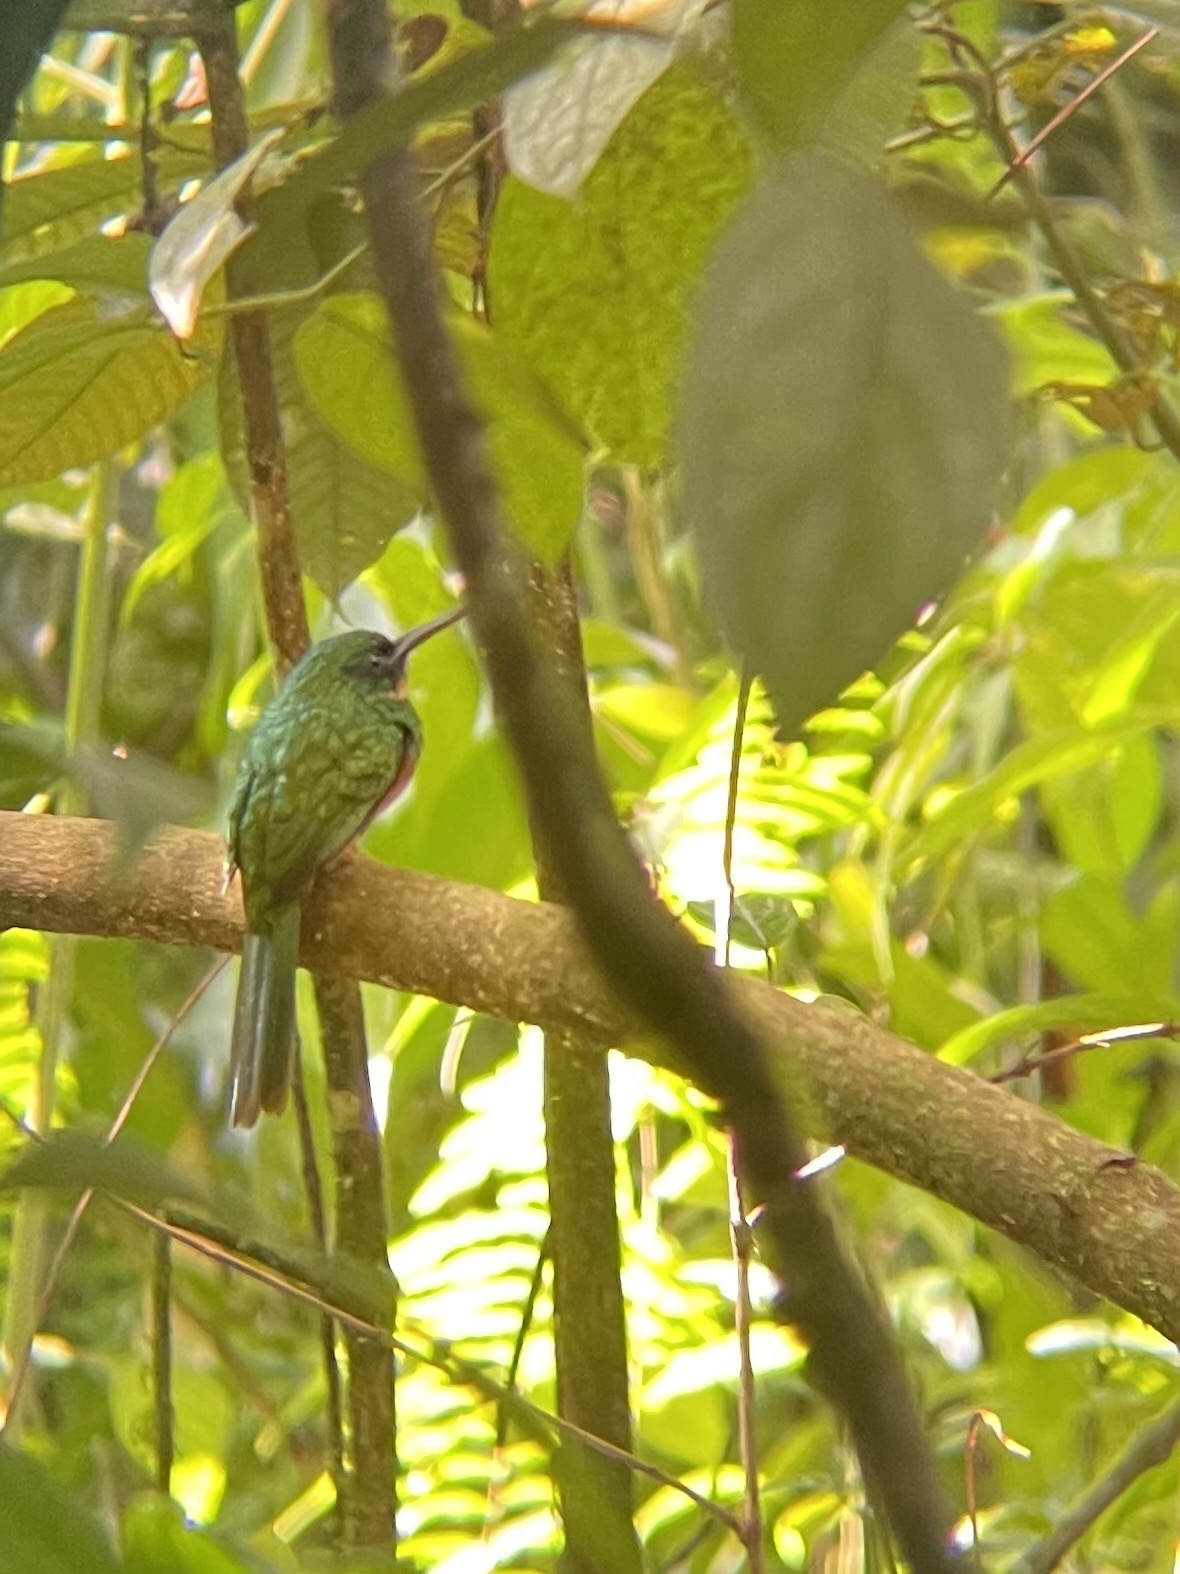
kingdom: Animalia
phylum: Chordata
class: Aves
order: Piciformes
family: Galbulidae
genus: Galbula
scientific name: Galbula ruficauda
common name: Rufous-tailed jacamar
